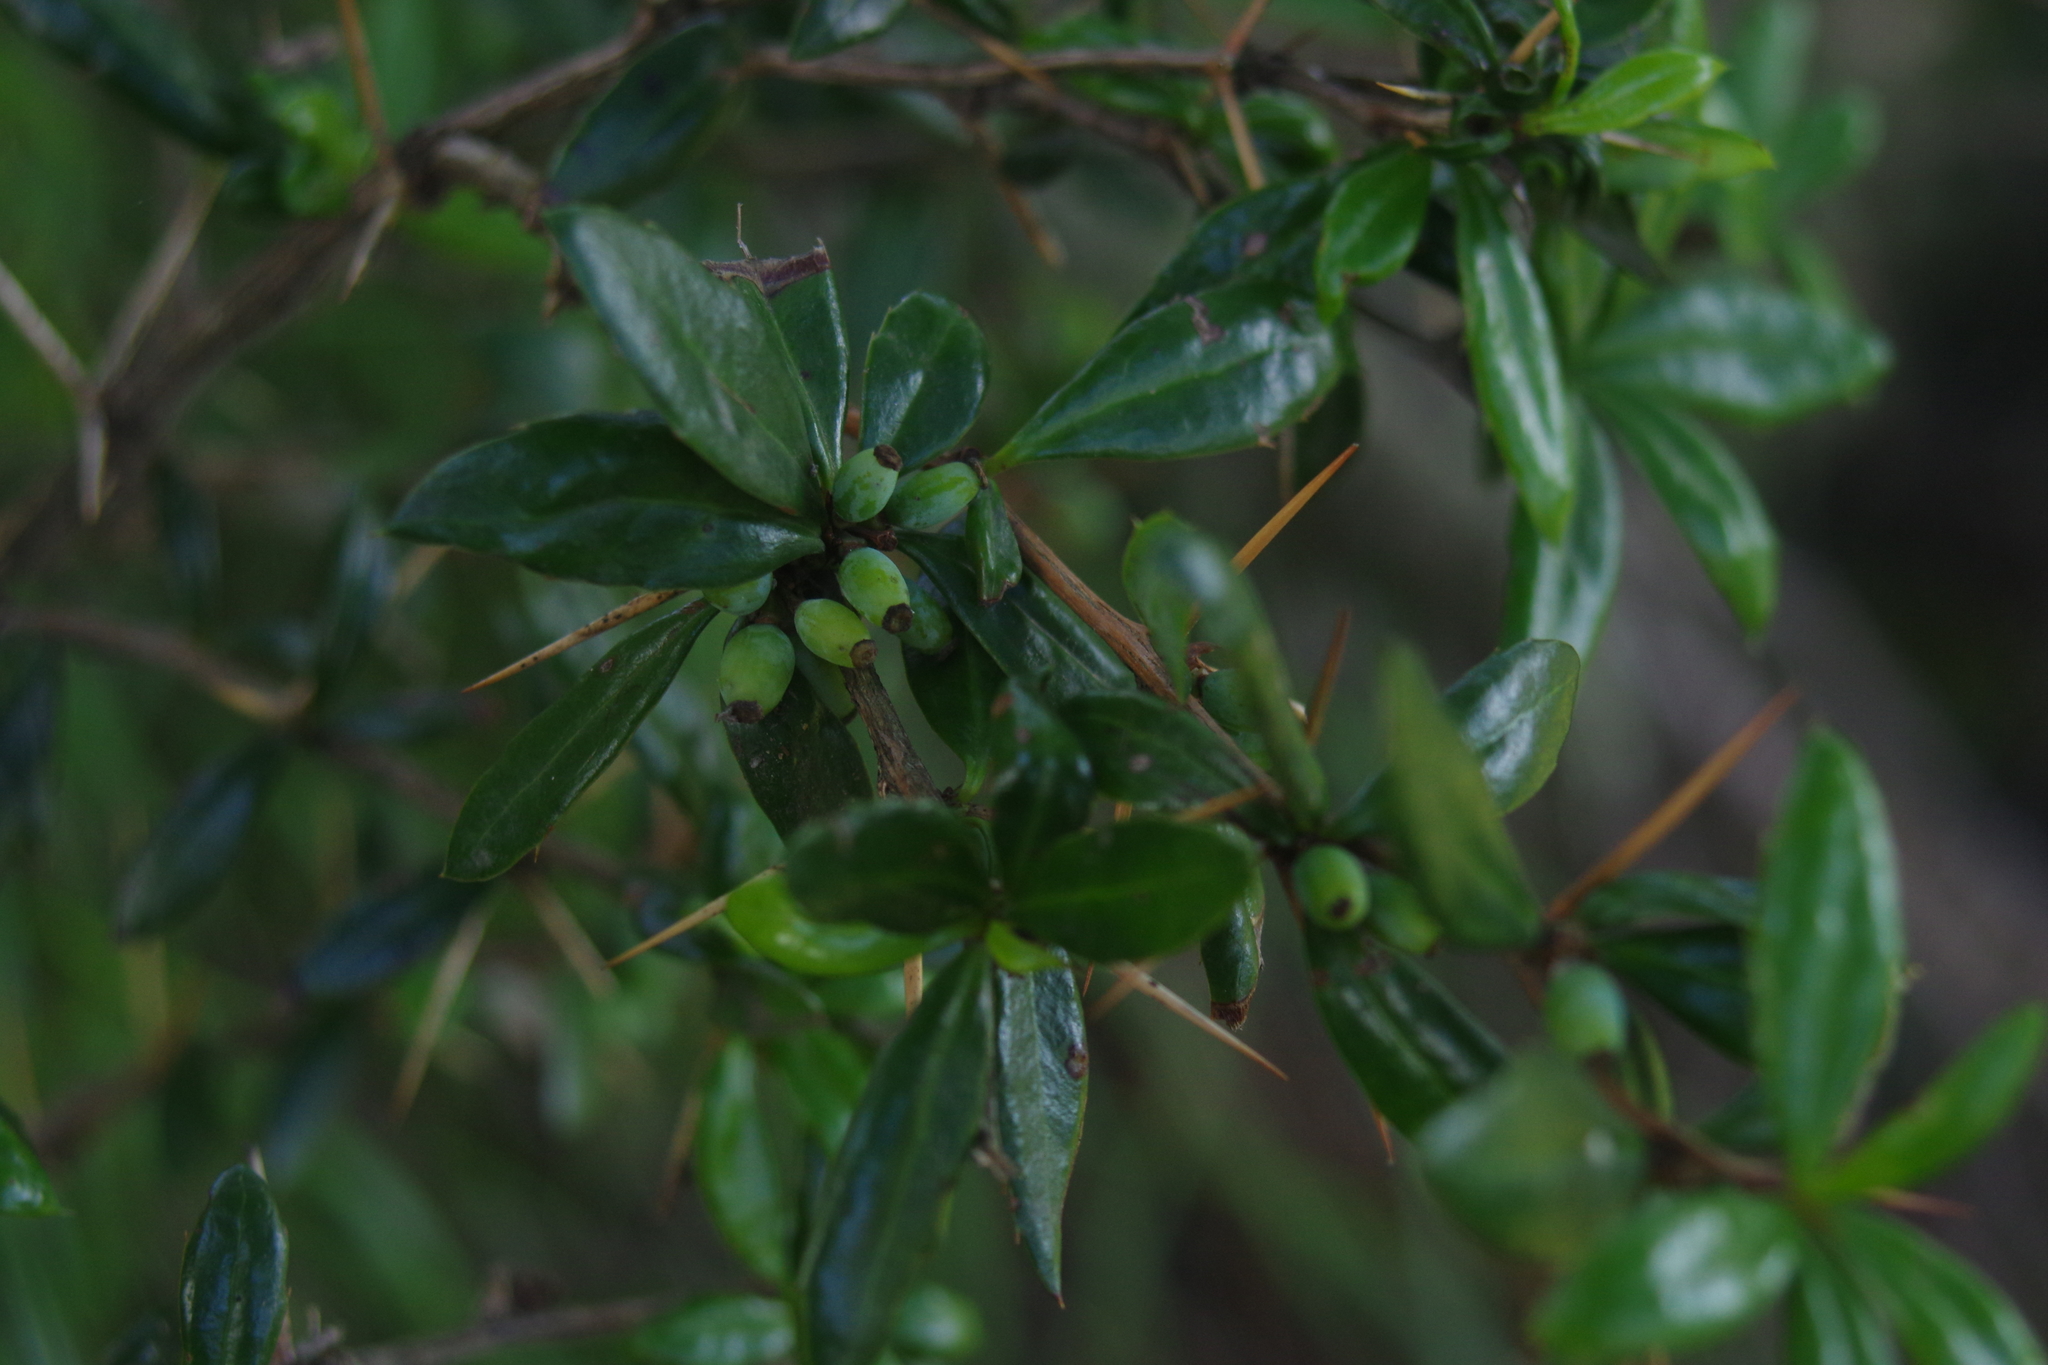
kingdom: Plantae
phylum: Tracheophyta
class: Magnoliopsida
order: Ranunculales
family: Berberidaceae
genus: Berberis
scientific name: Berberis nantoensis
